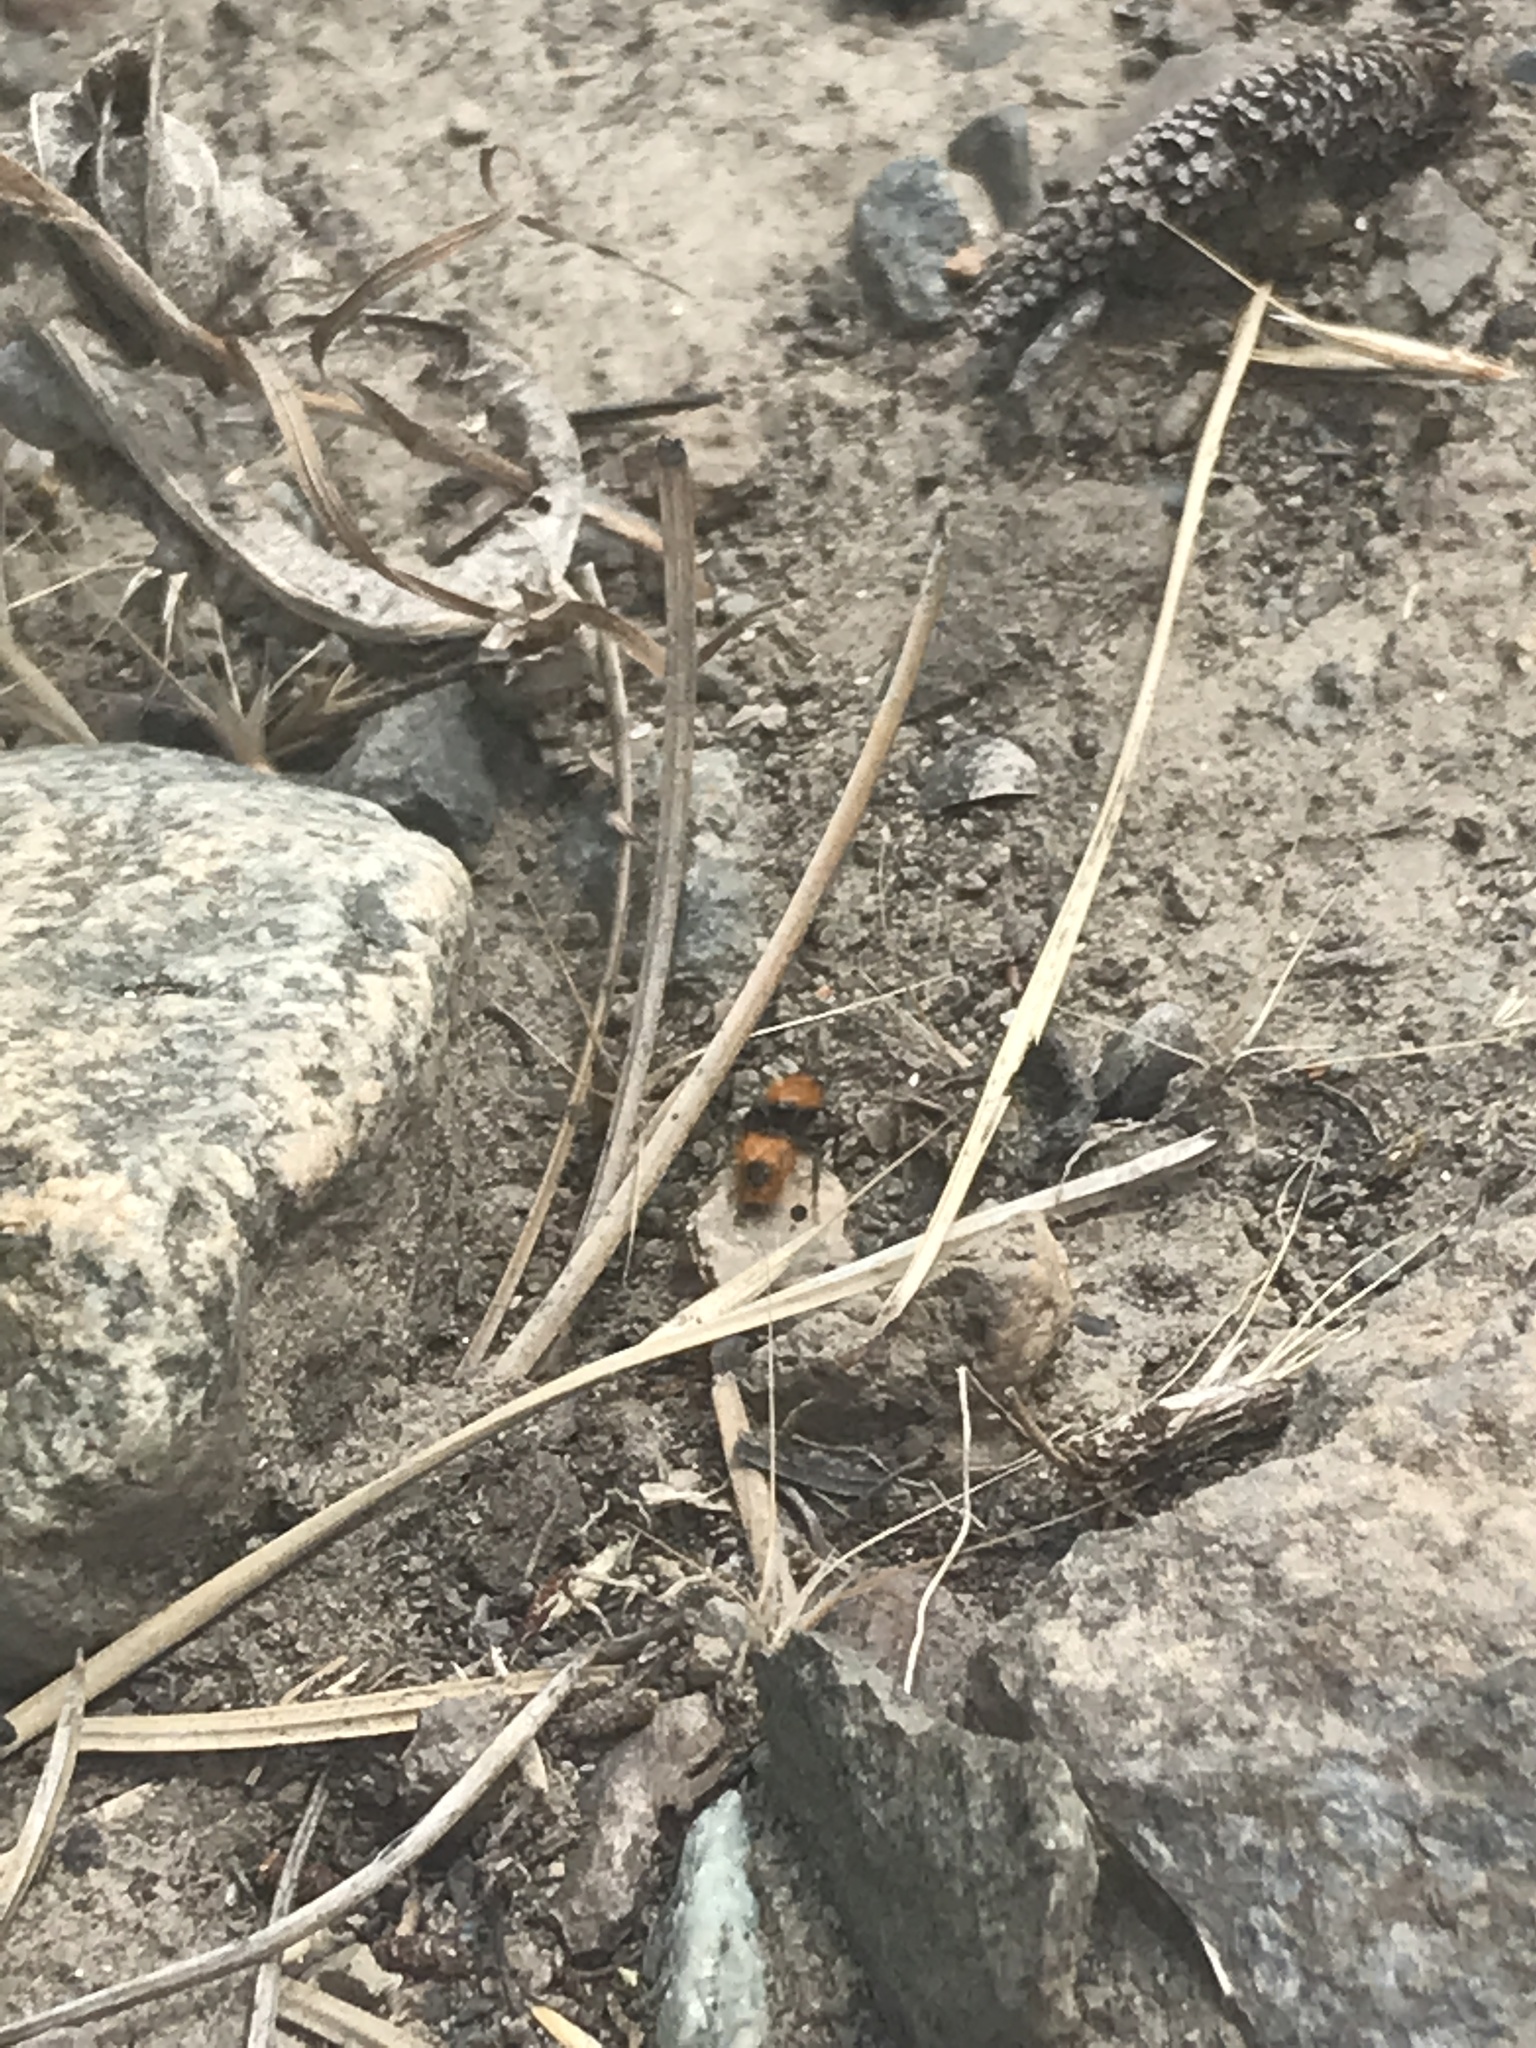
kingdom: Animalia
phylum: Arthropoda
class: Insecta
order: Hymenoptera
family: Mutillidae
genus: Dasymutilla
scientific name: Dasymutilla
